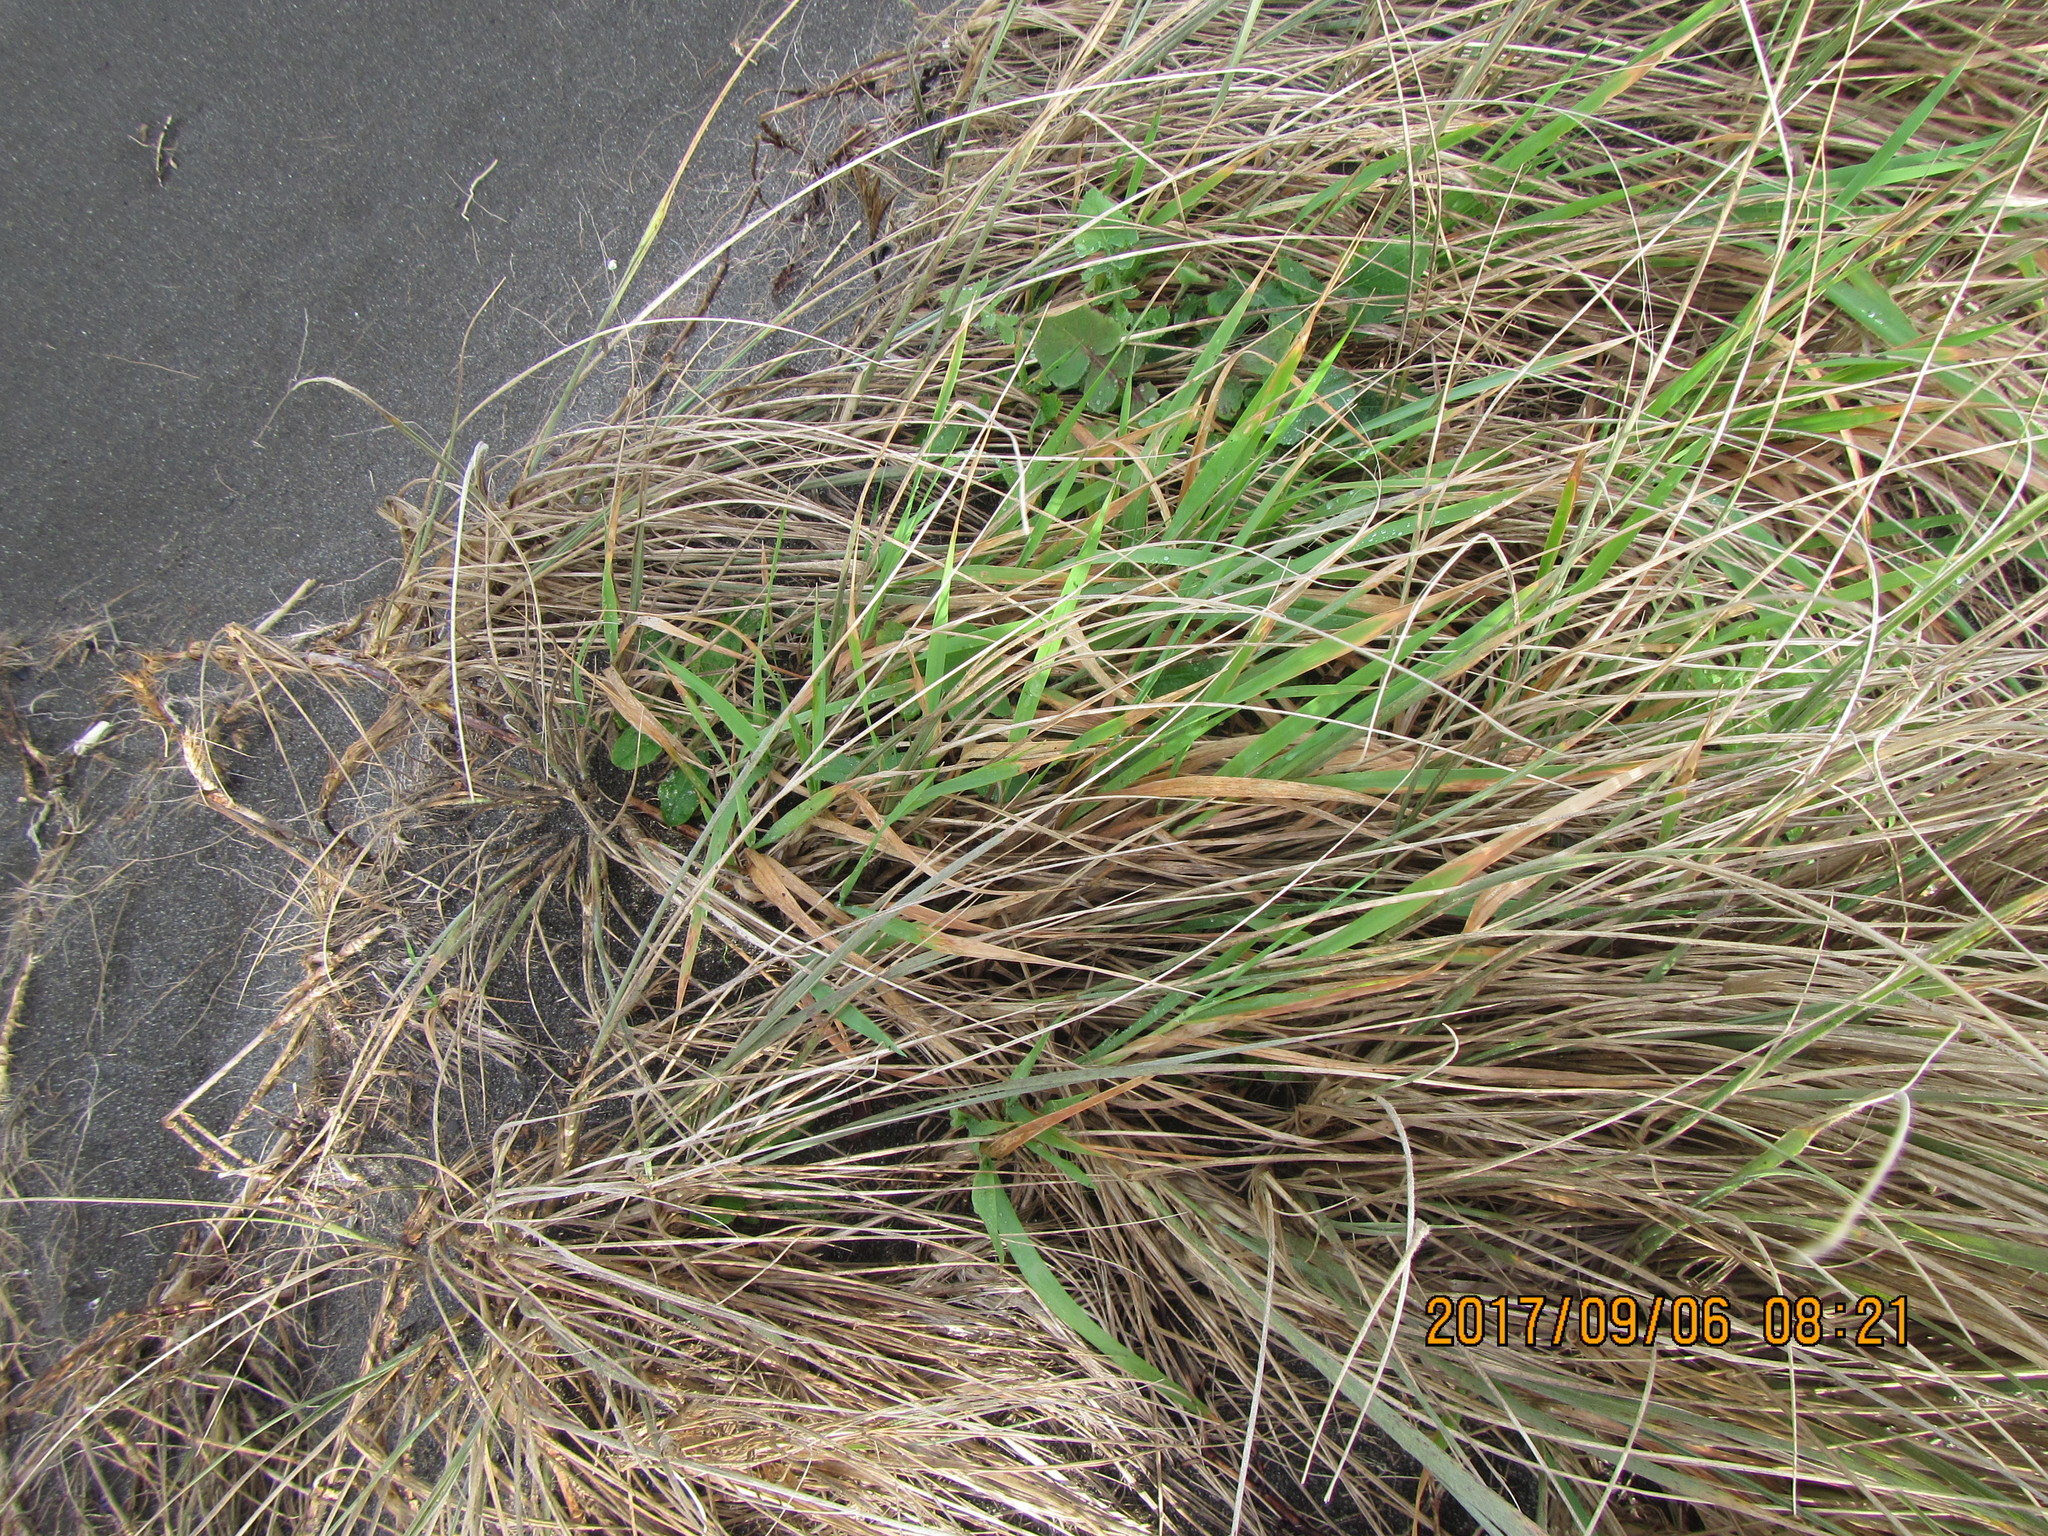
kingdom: Plantae
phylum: Tracheophyta
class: Liliopsida
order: Poales
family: Poaceae
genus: Lachnagrostis
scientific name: Lachnagrostis billardierei
